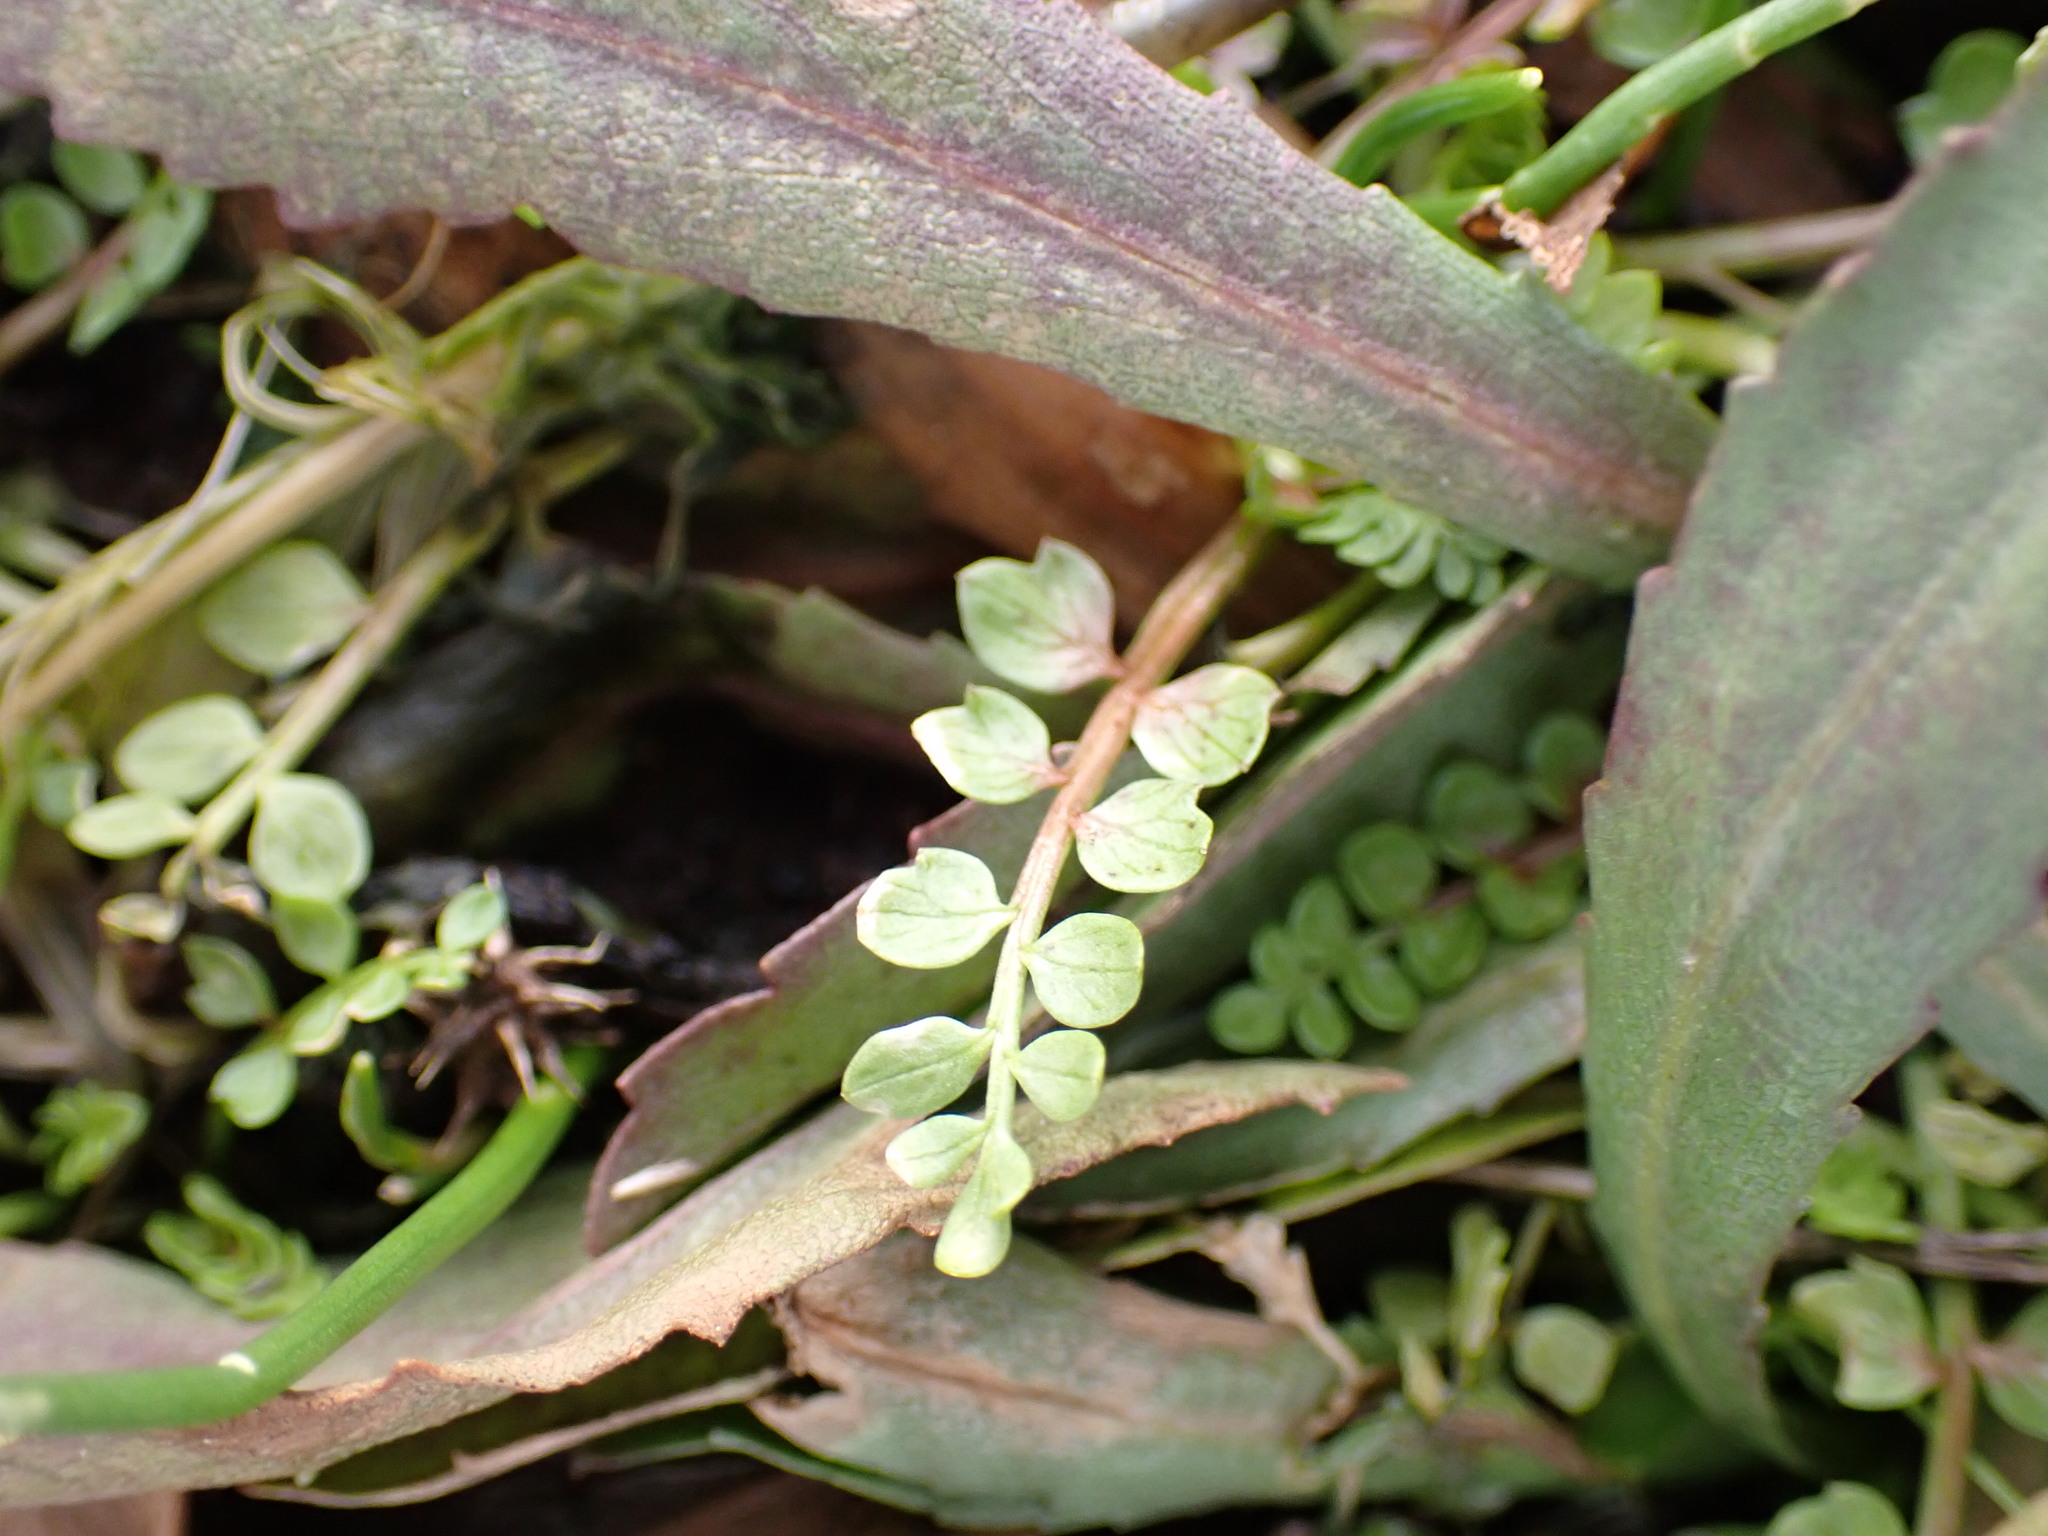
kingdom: Plantae
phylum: Tracheophyta
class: Magnoliopsida
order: Brassicales
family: Limnanthaceae
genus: Limnanthes
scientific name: Limnanthes macounii
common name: Macoun's meadowfoam
